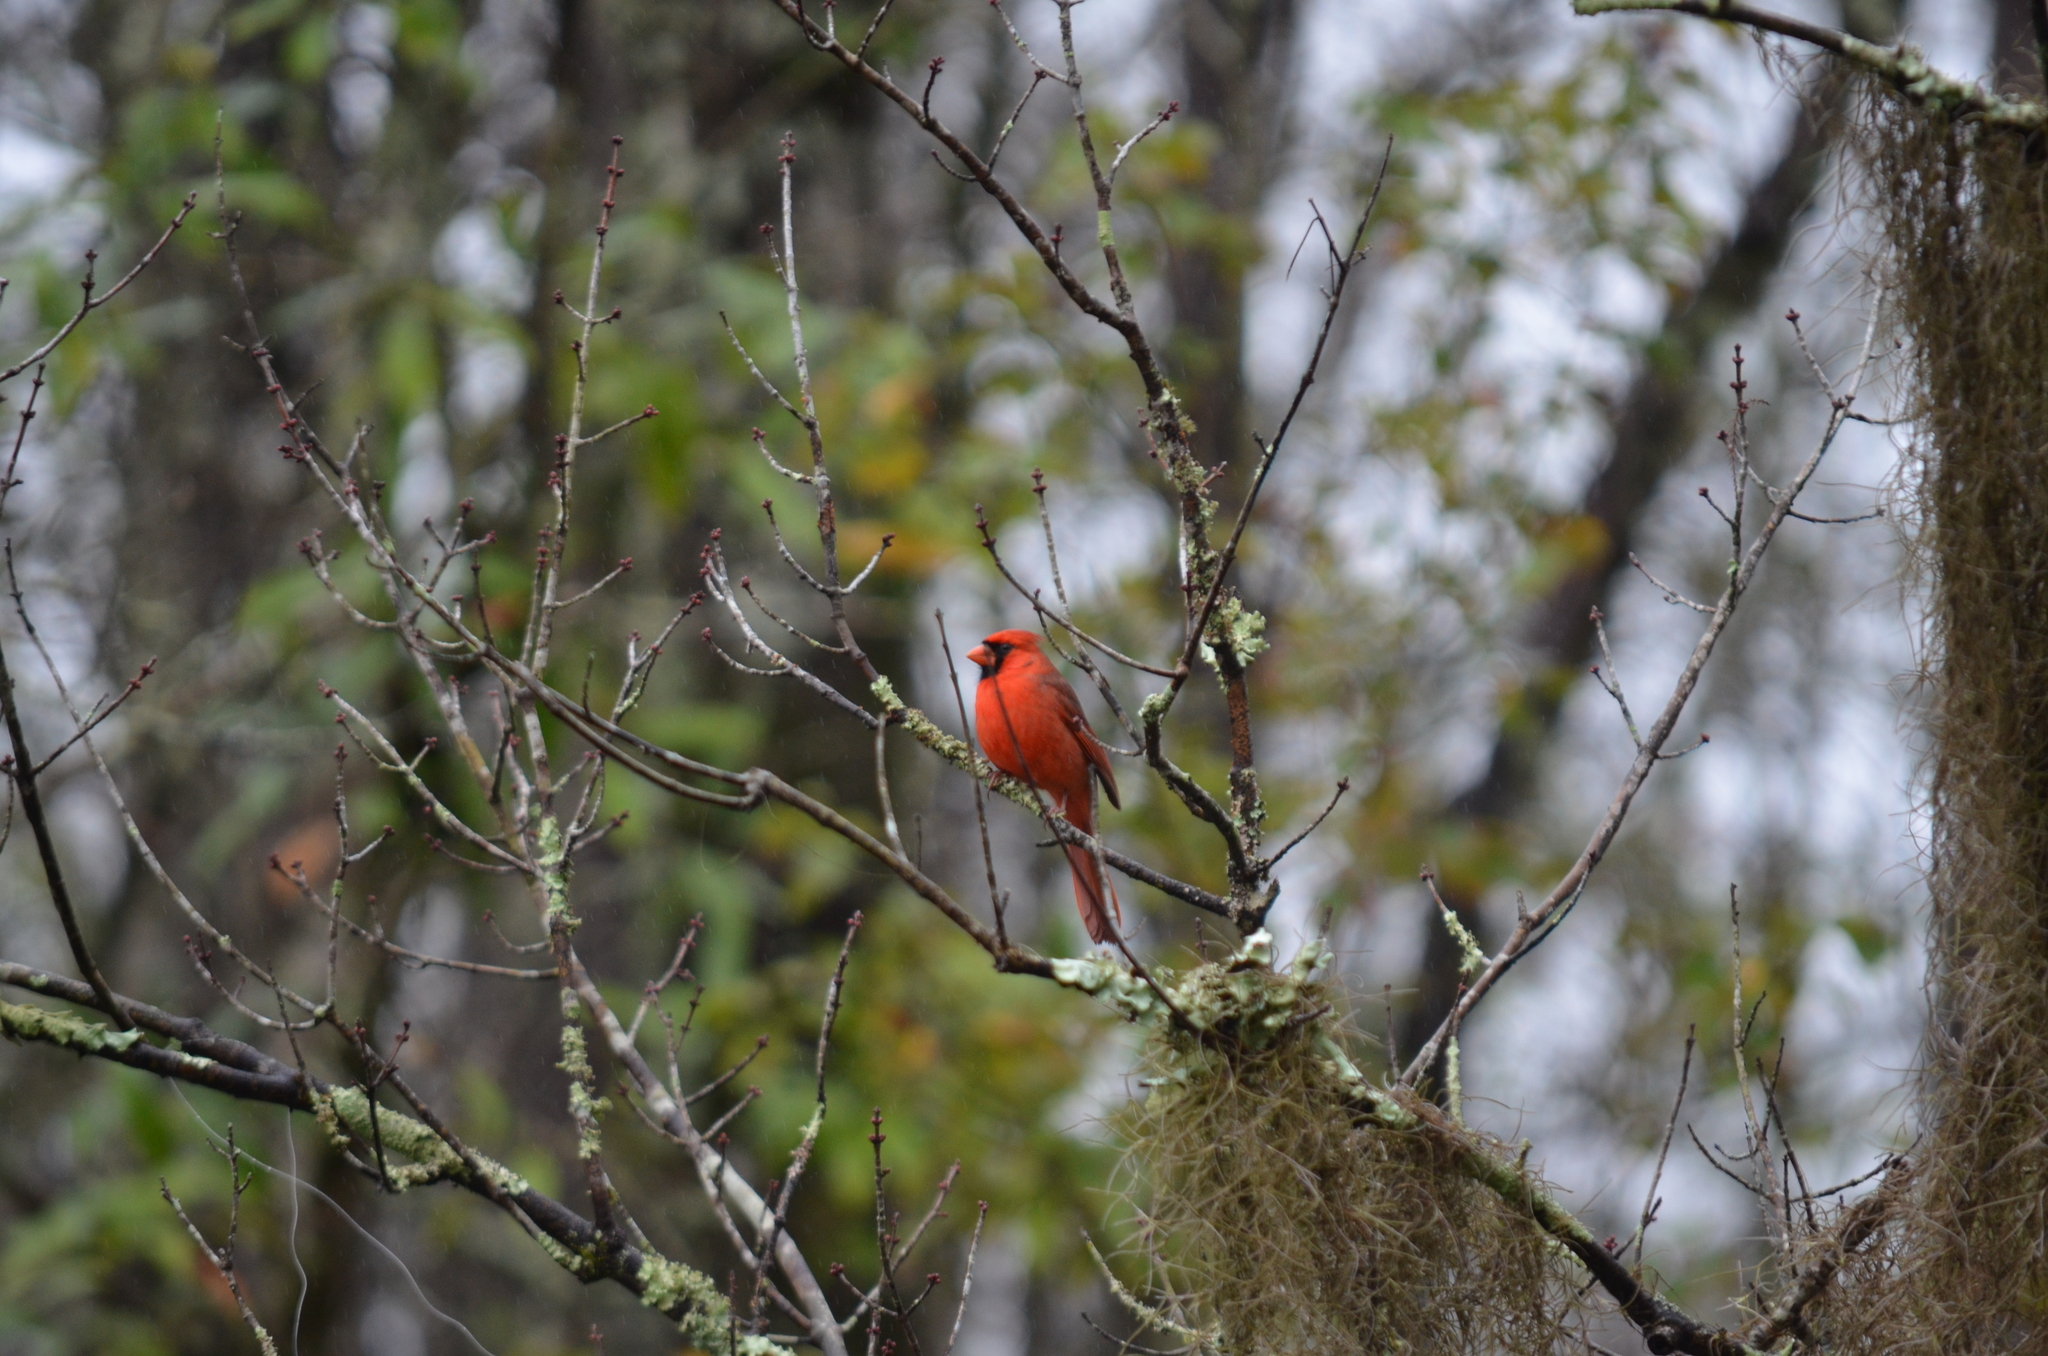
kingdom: Animalia
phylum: Chordata
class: Aves
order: Passeriformes
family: Cardinalidae
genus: Cardinalis
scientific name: Cardinalis cardinalis
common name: Northern cardinal
